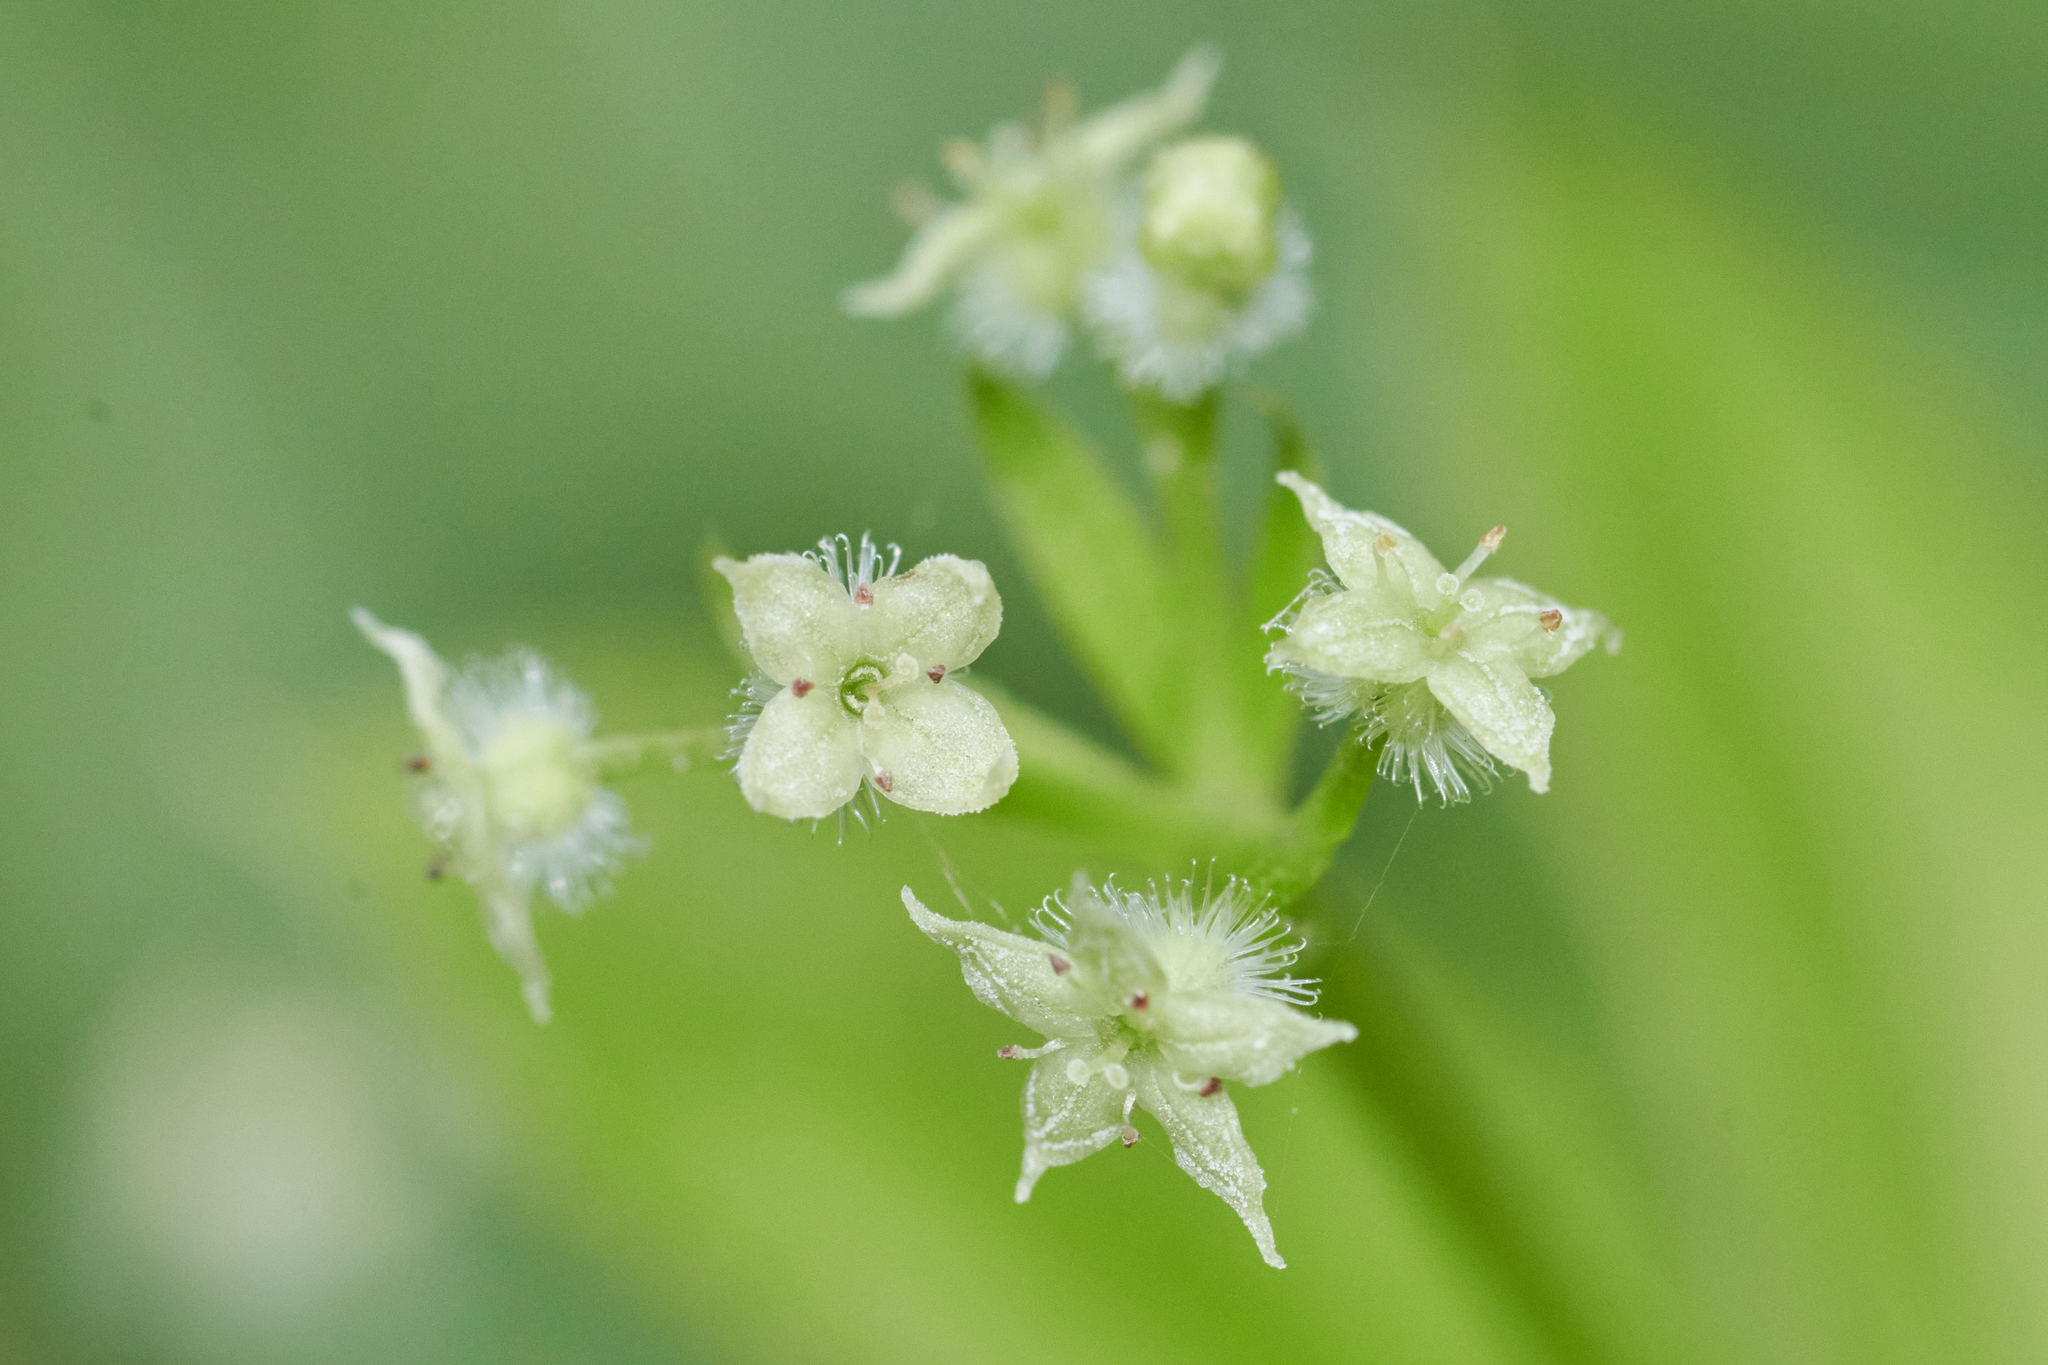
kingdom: Plantae
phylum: Tracheophyta
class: Magnoliopsida
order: Gentianales
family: Rubiaceae
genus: Galium
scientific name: Galium triflorum
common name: Fragrant bedstraw
